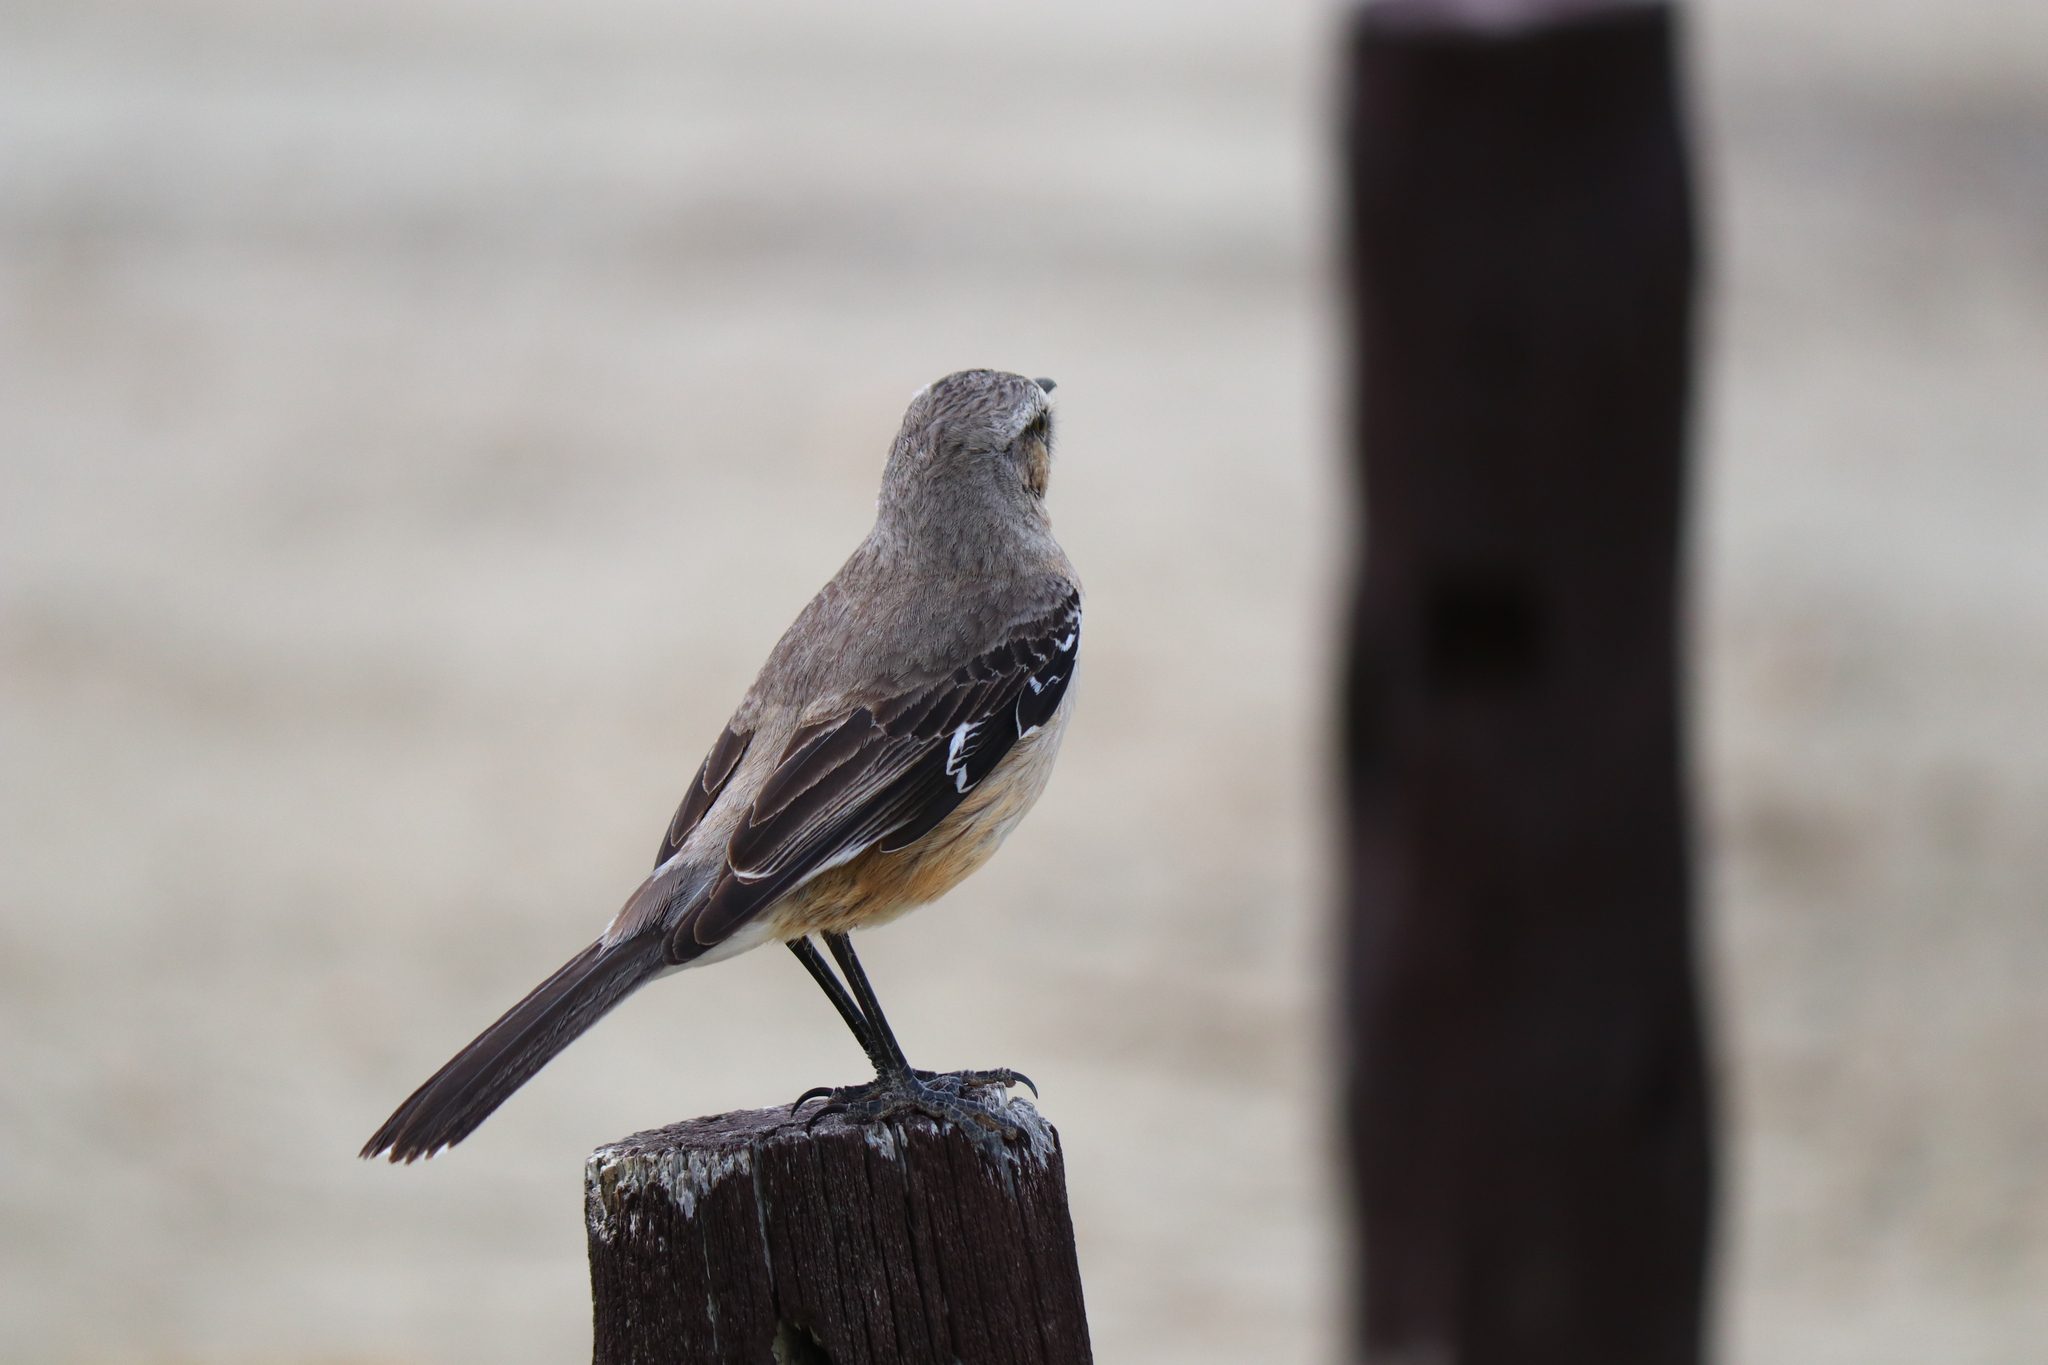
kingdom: Animalia
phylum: Chordata
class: Aves
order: Passeriformes
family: Mimidae
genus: Mimus
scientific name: Mimus patagonicus
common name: Patagonian mockingbird
